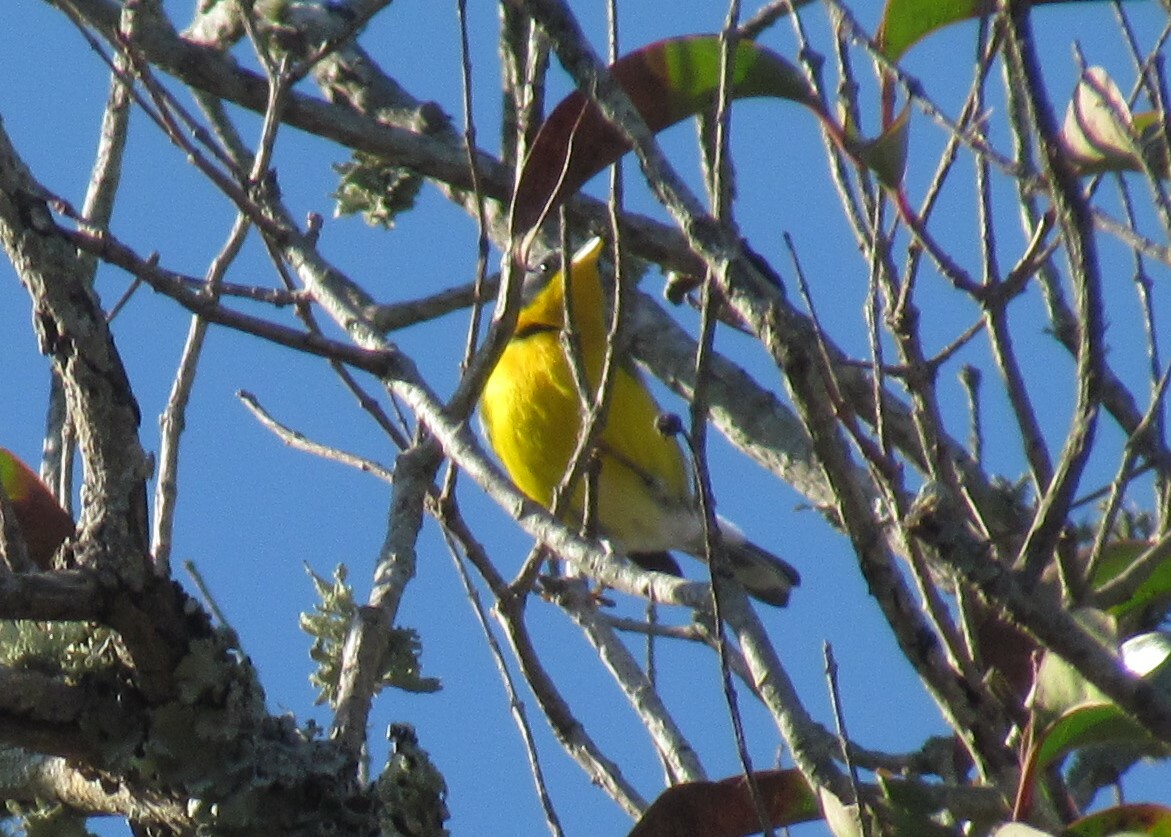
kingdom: Animalia
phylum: Chordata
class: Aves
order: Passeriformes
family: Parulidae
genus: Setophaga
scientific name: Setophaga pitiayumi
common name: Tropical parula
